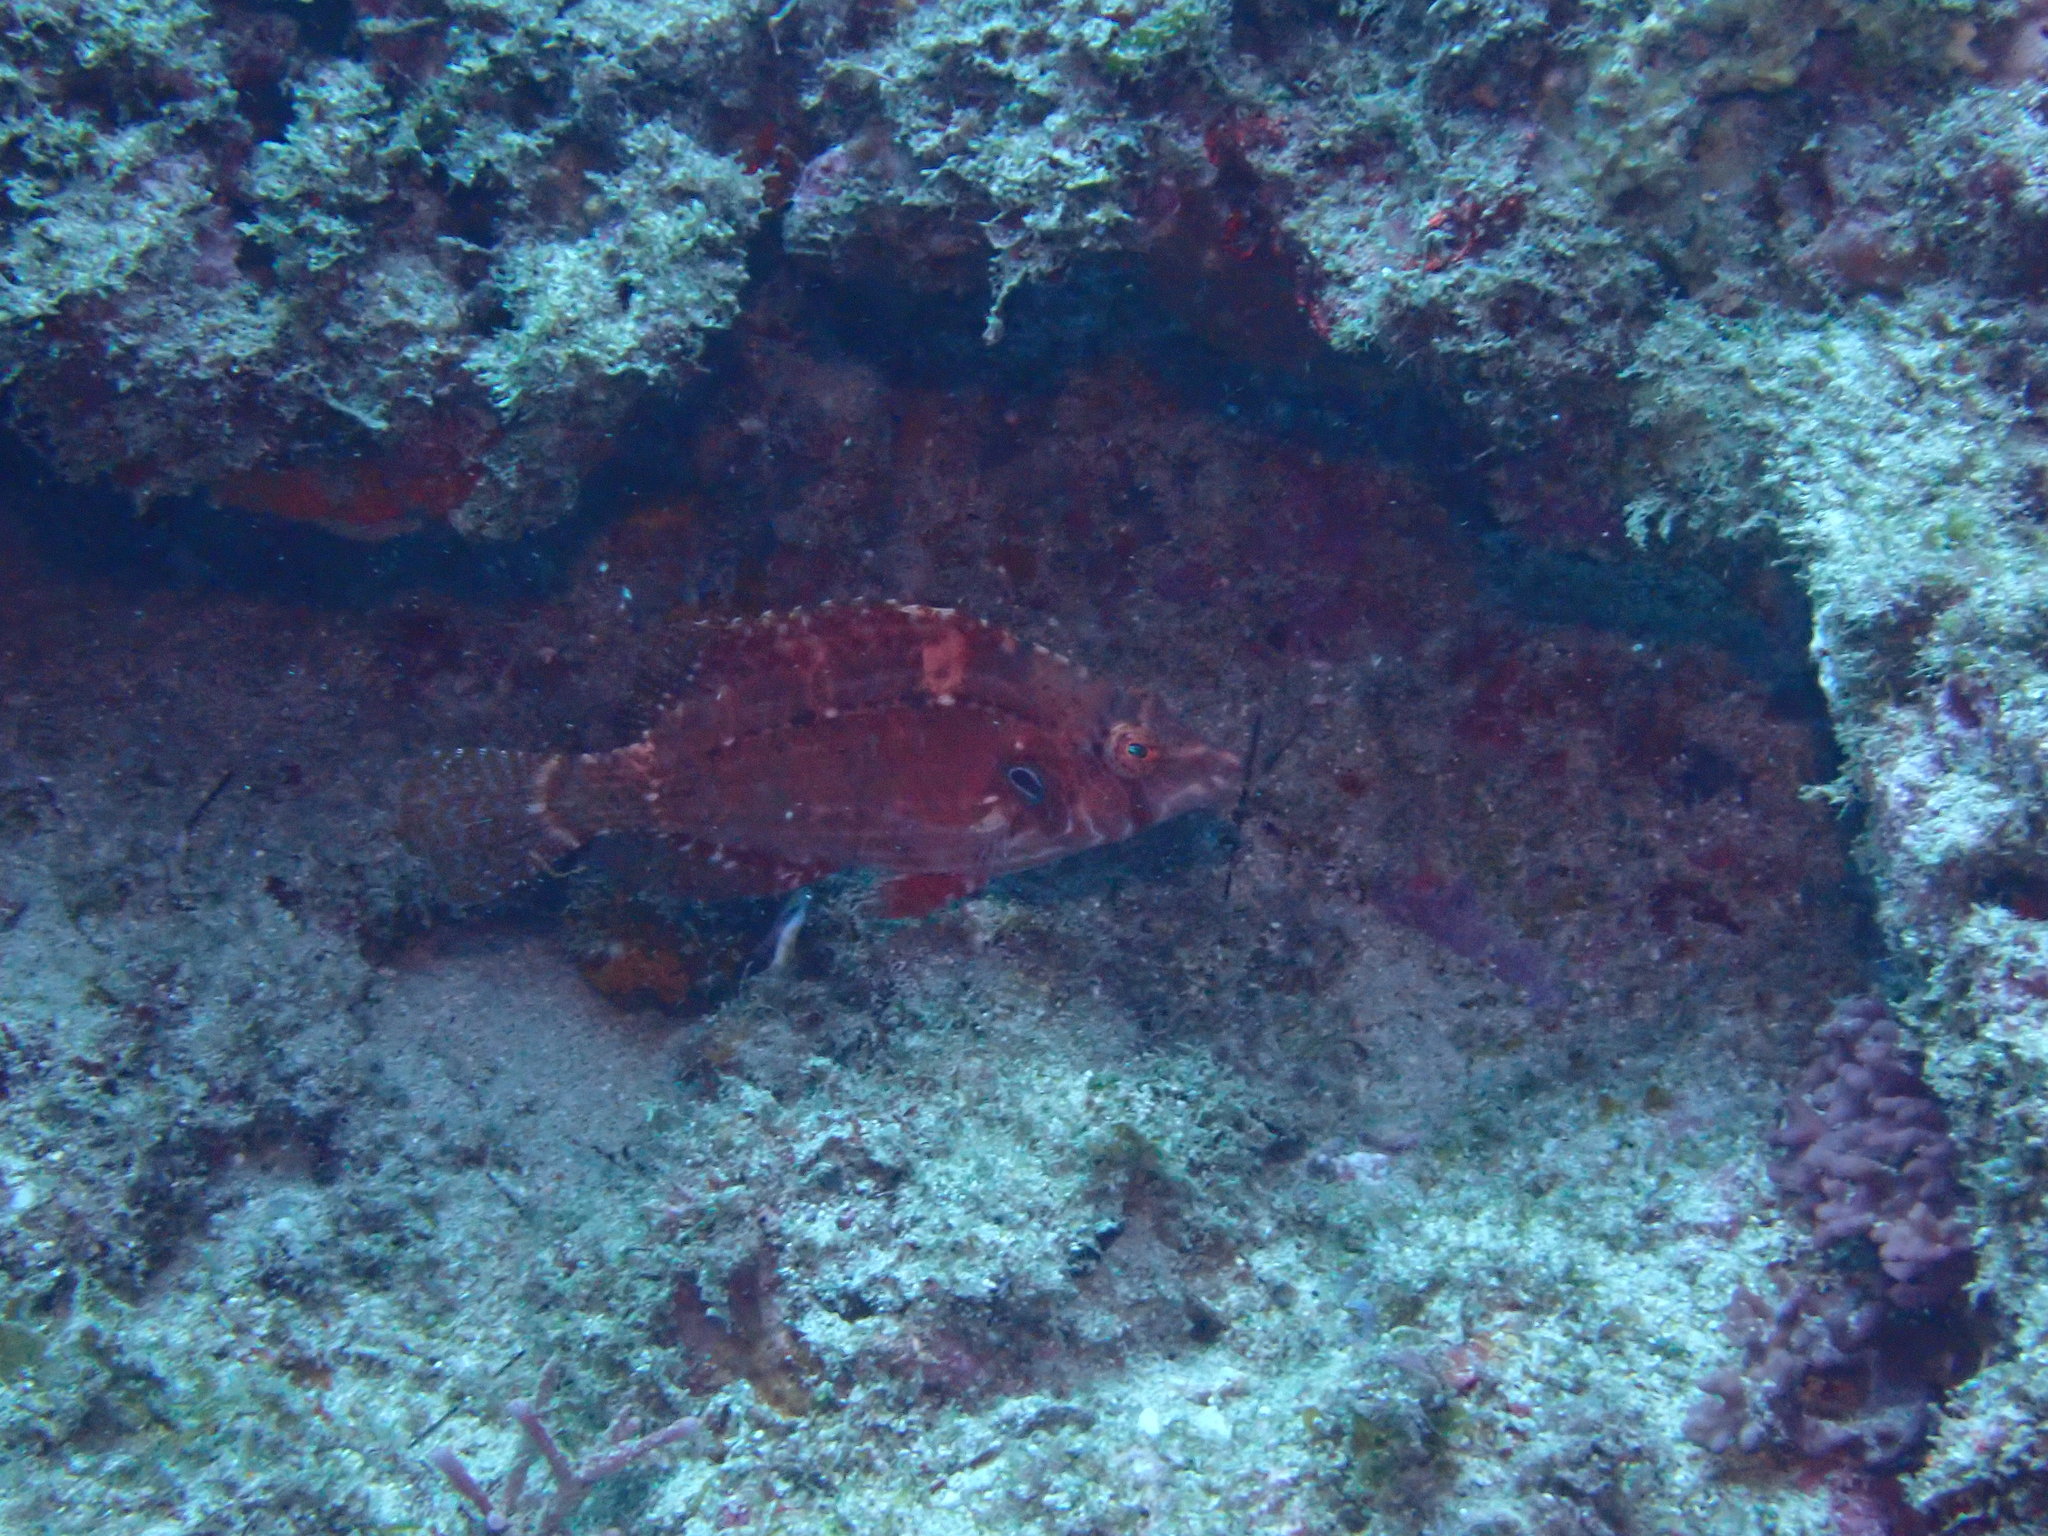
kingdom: Animalia
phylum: Chordata
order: Perciformes
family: Labridae
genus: Pteragogus
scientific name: Pteragogus enneacanthus
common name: Cockerel wrasse
